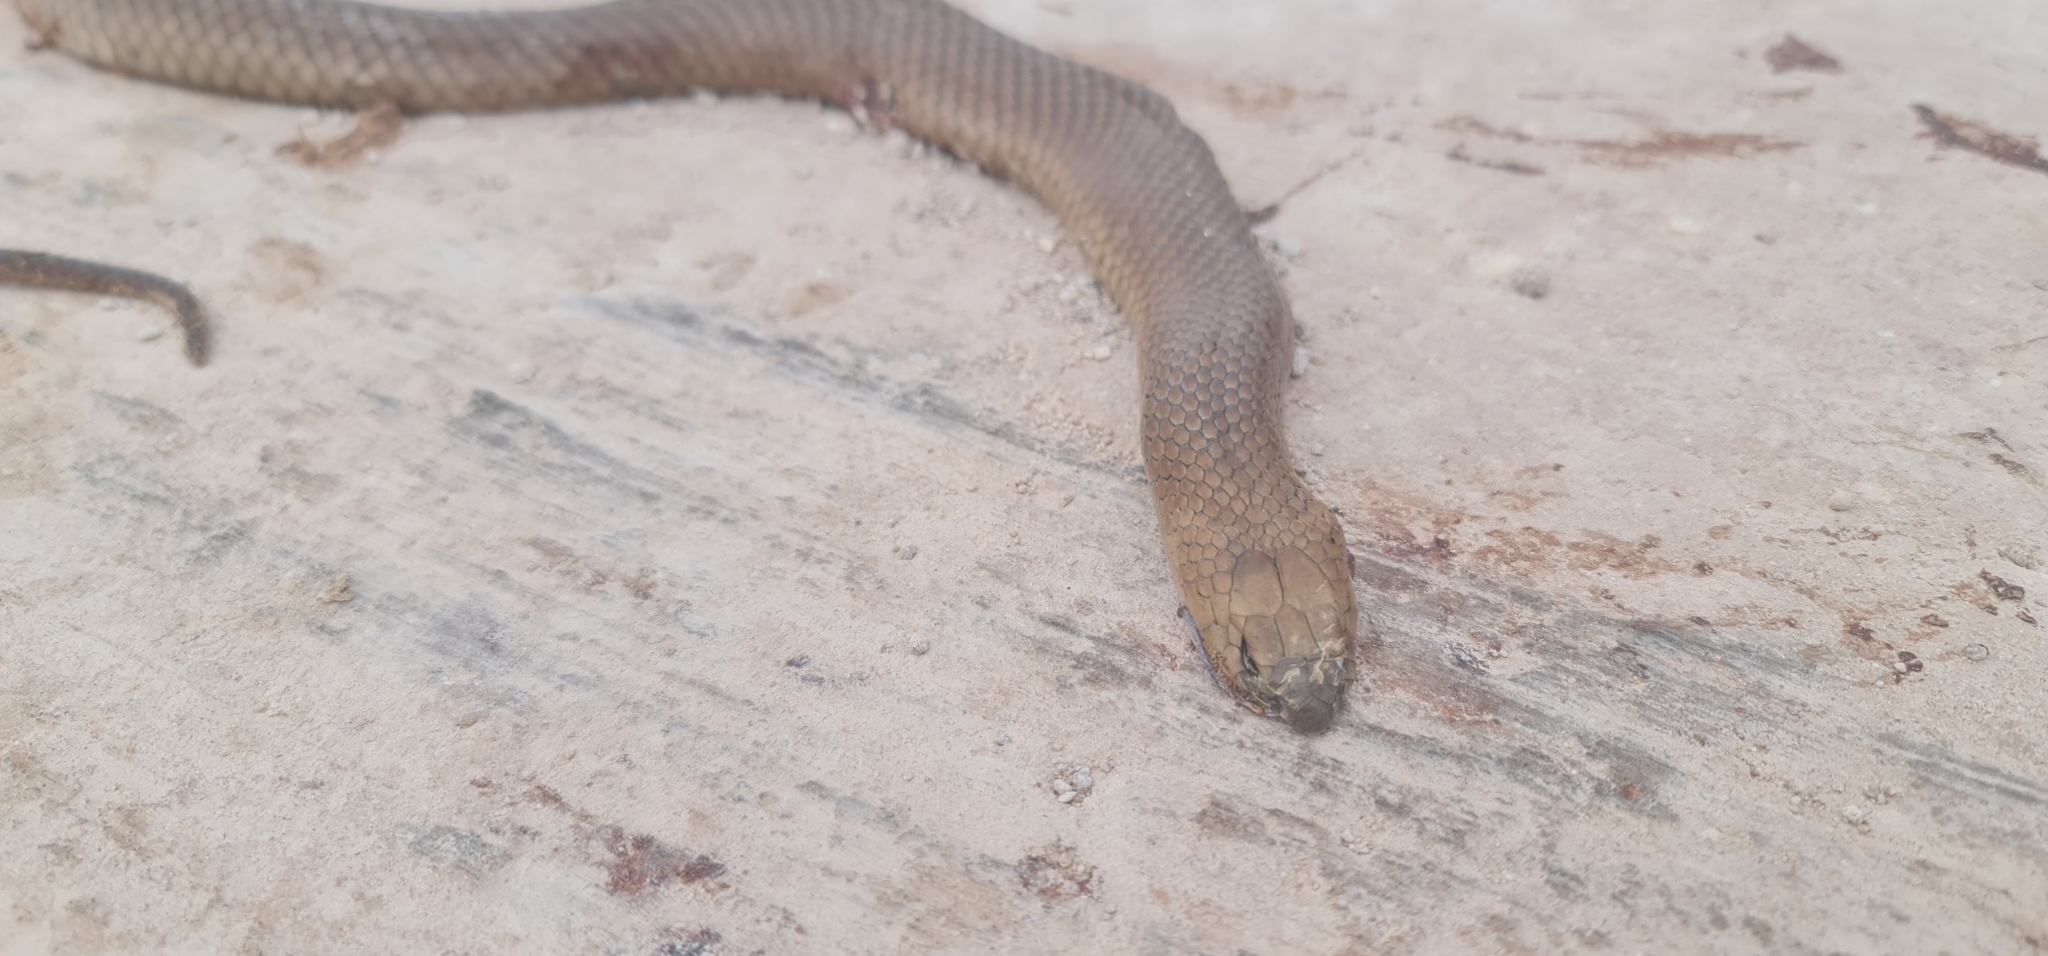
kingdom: Animalia
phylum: Chordata
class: Squamata
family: Elapidae
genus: Pseudonaja
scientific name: Pseudonaja textilis
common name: Eastern brown snake
